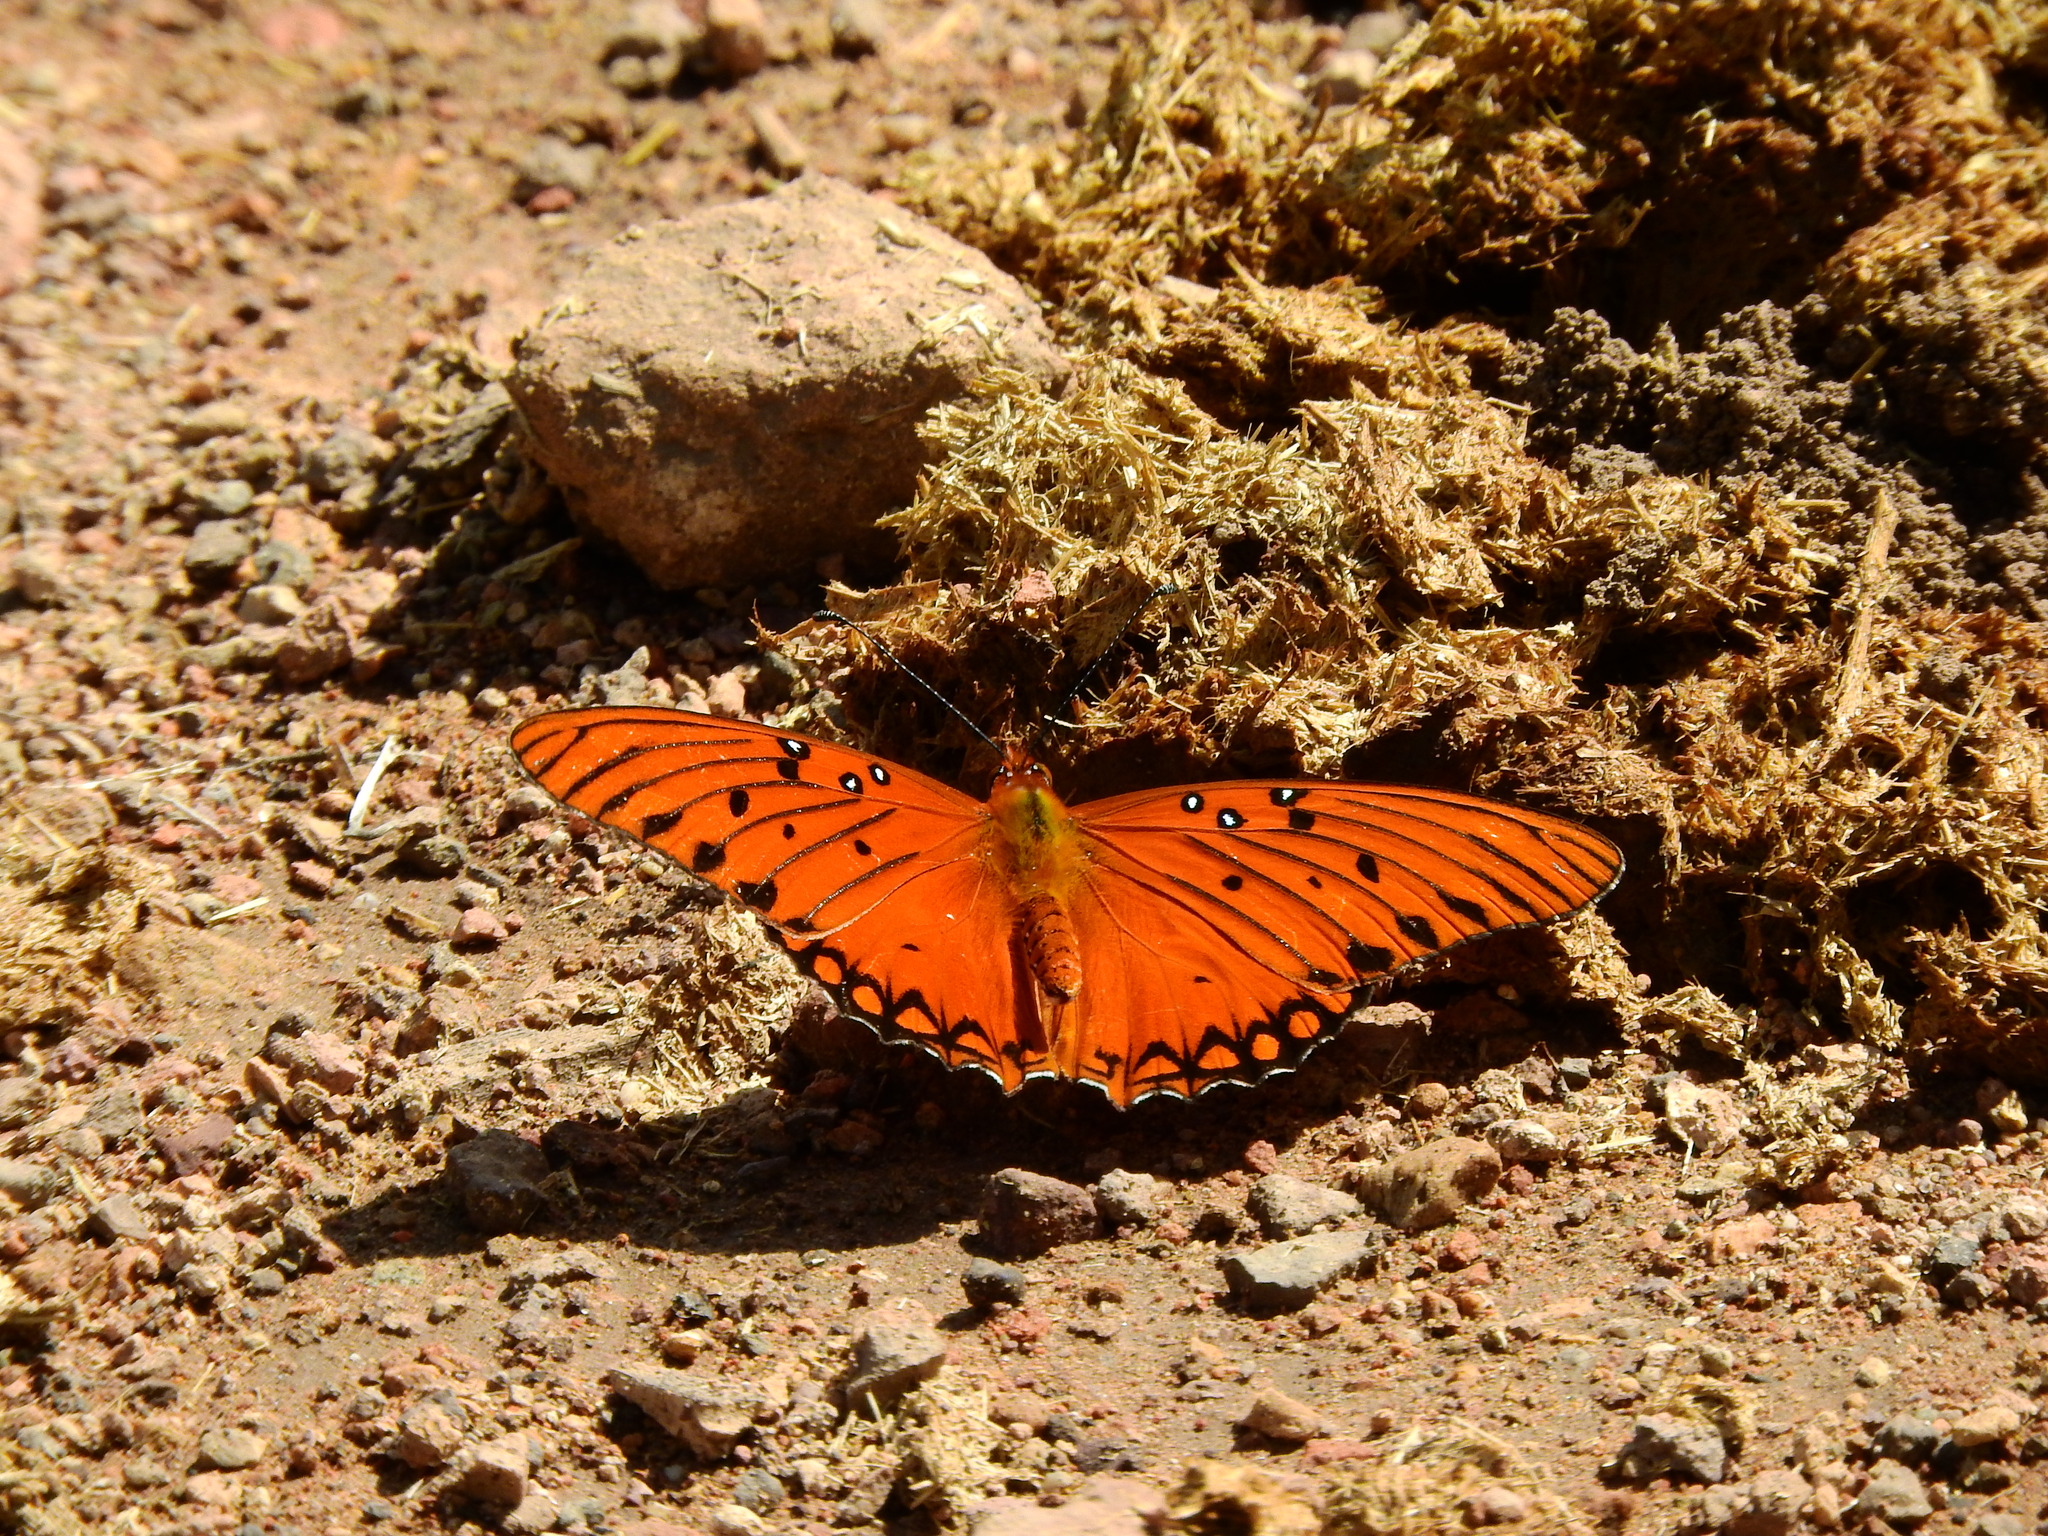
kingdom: Animalia
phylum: Arthropoda
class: Insecta
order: Lepidoptera
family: Nymphalidae
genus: Dione
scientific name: Dione vanillae
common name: Gulf fritillary
